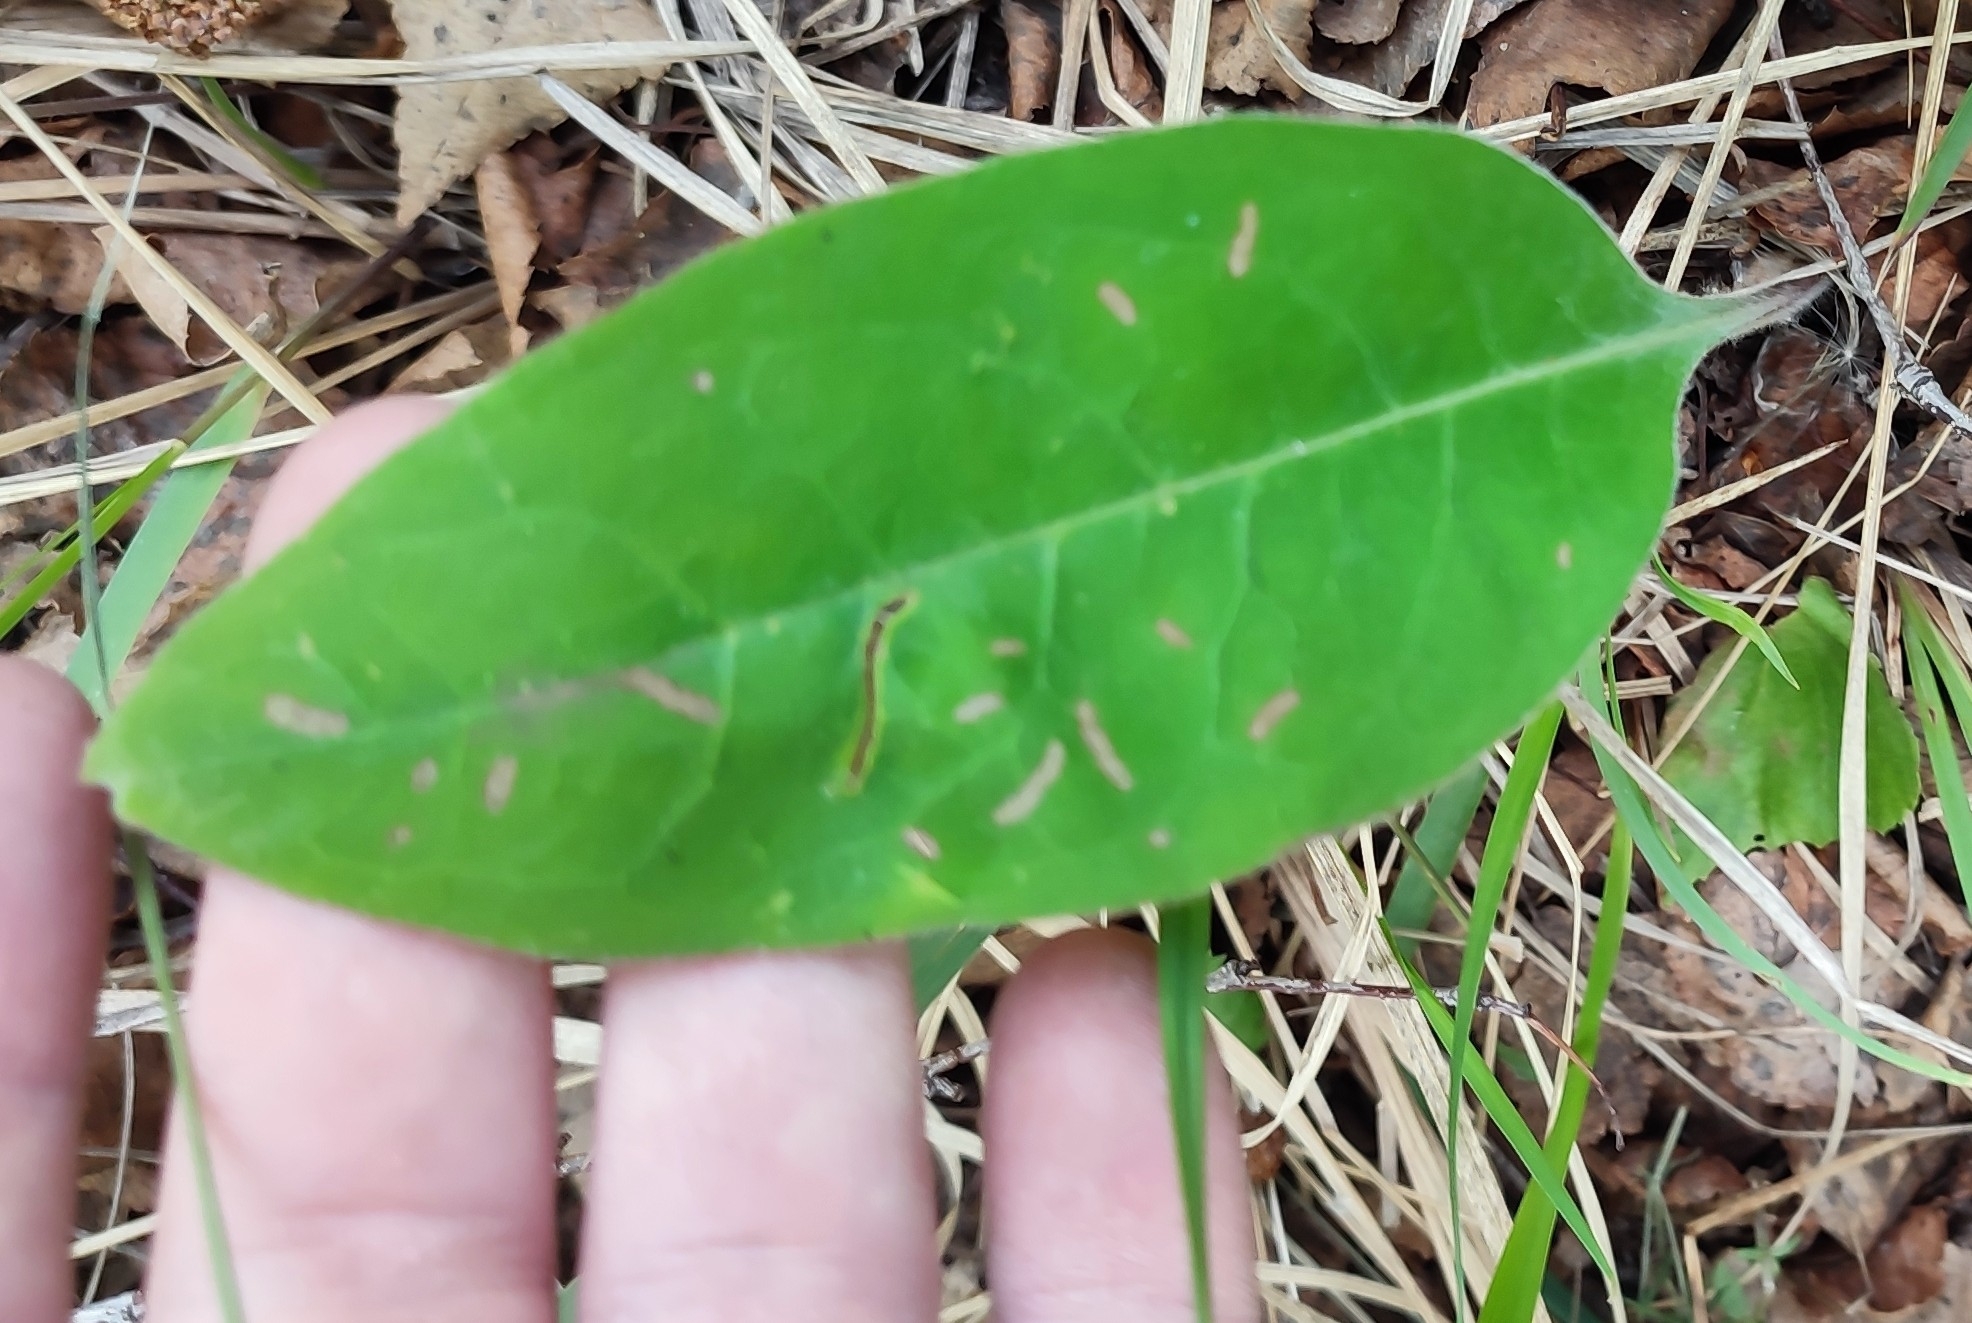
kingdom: Plantae
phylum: Tracheophyta
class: Magnoliopsida
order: Boraginales
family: Boraginaceae
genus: Pulmonaria
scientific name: Pulmonaria mollis
